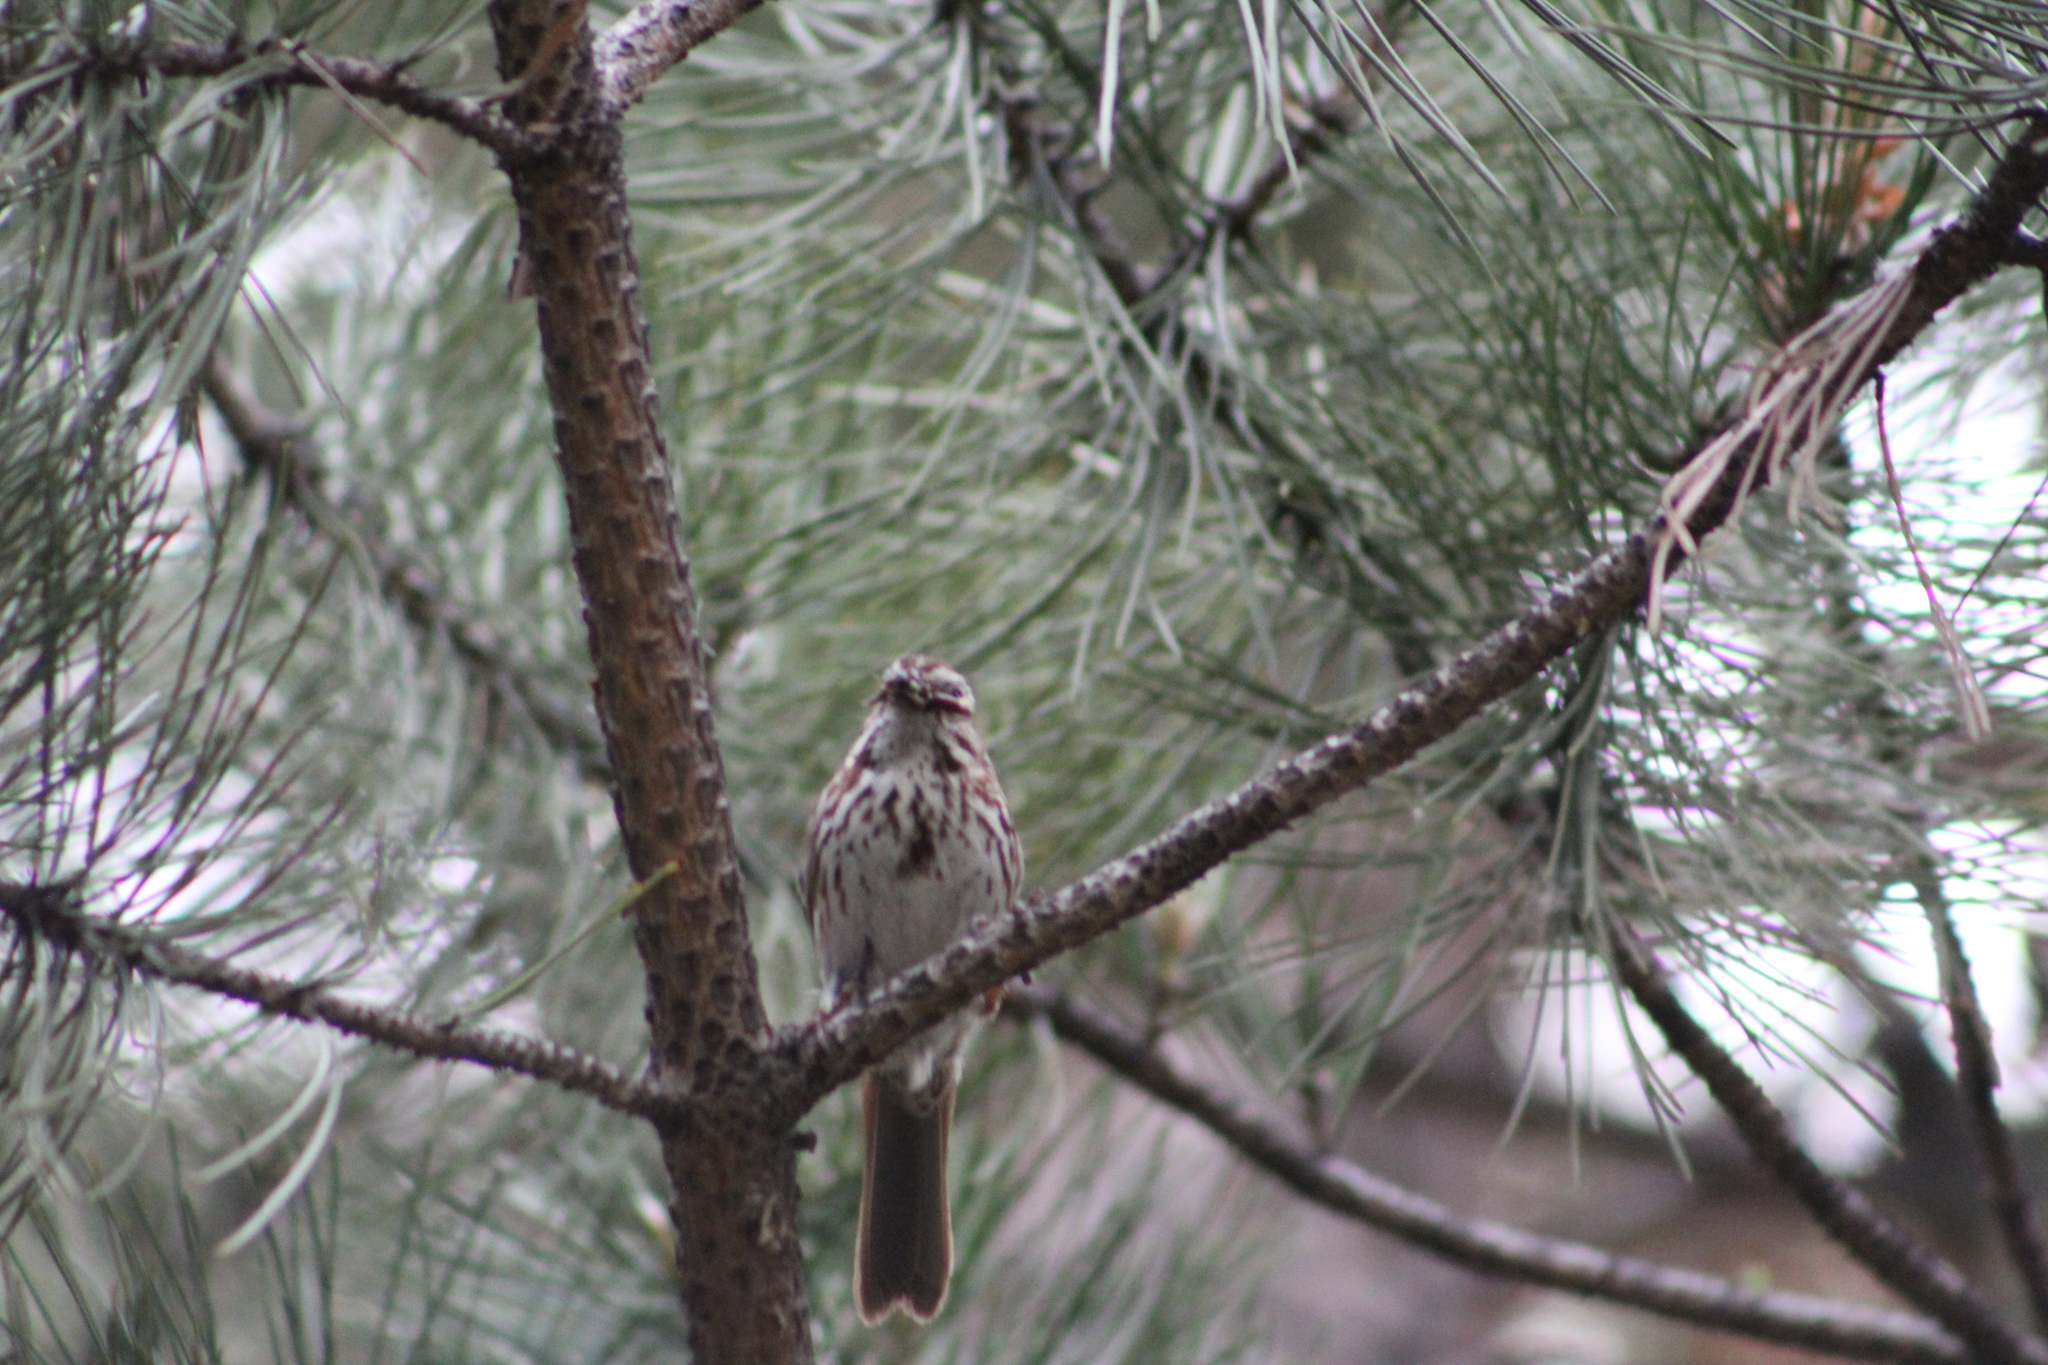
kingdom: Animalia
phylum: Chordata
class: Aves
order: Passeriformes
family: Passerellidae
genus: Melospiza
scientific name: Melospiza melodia
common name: Song sparrow
